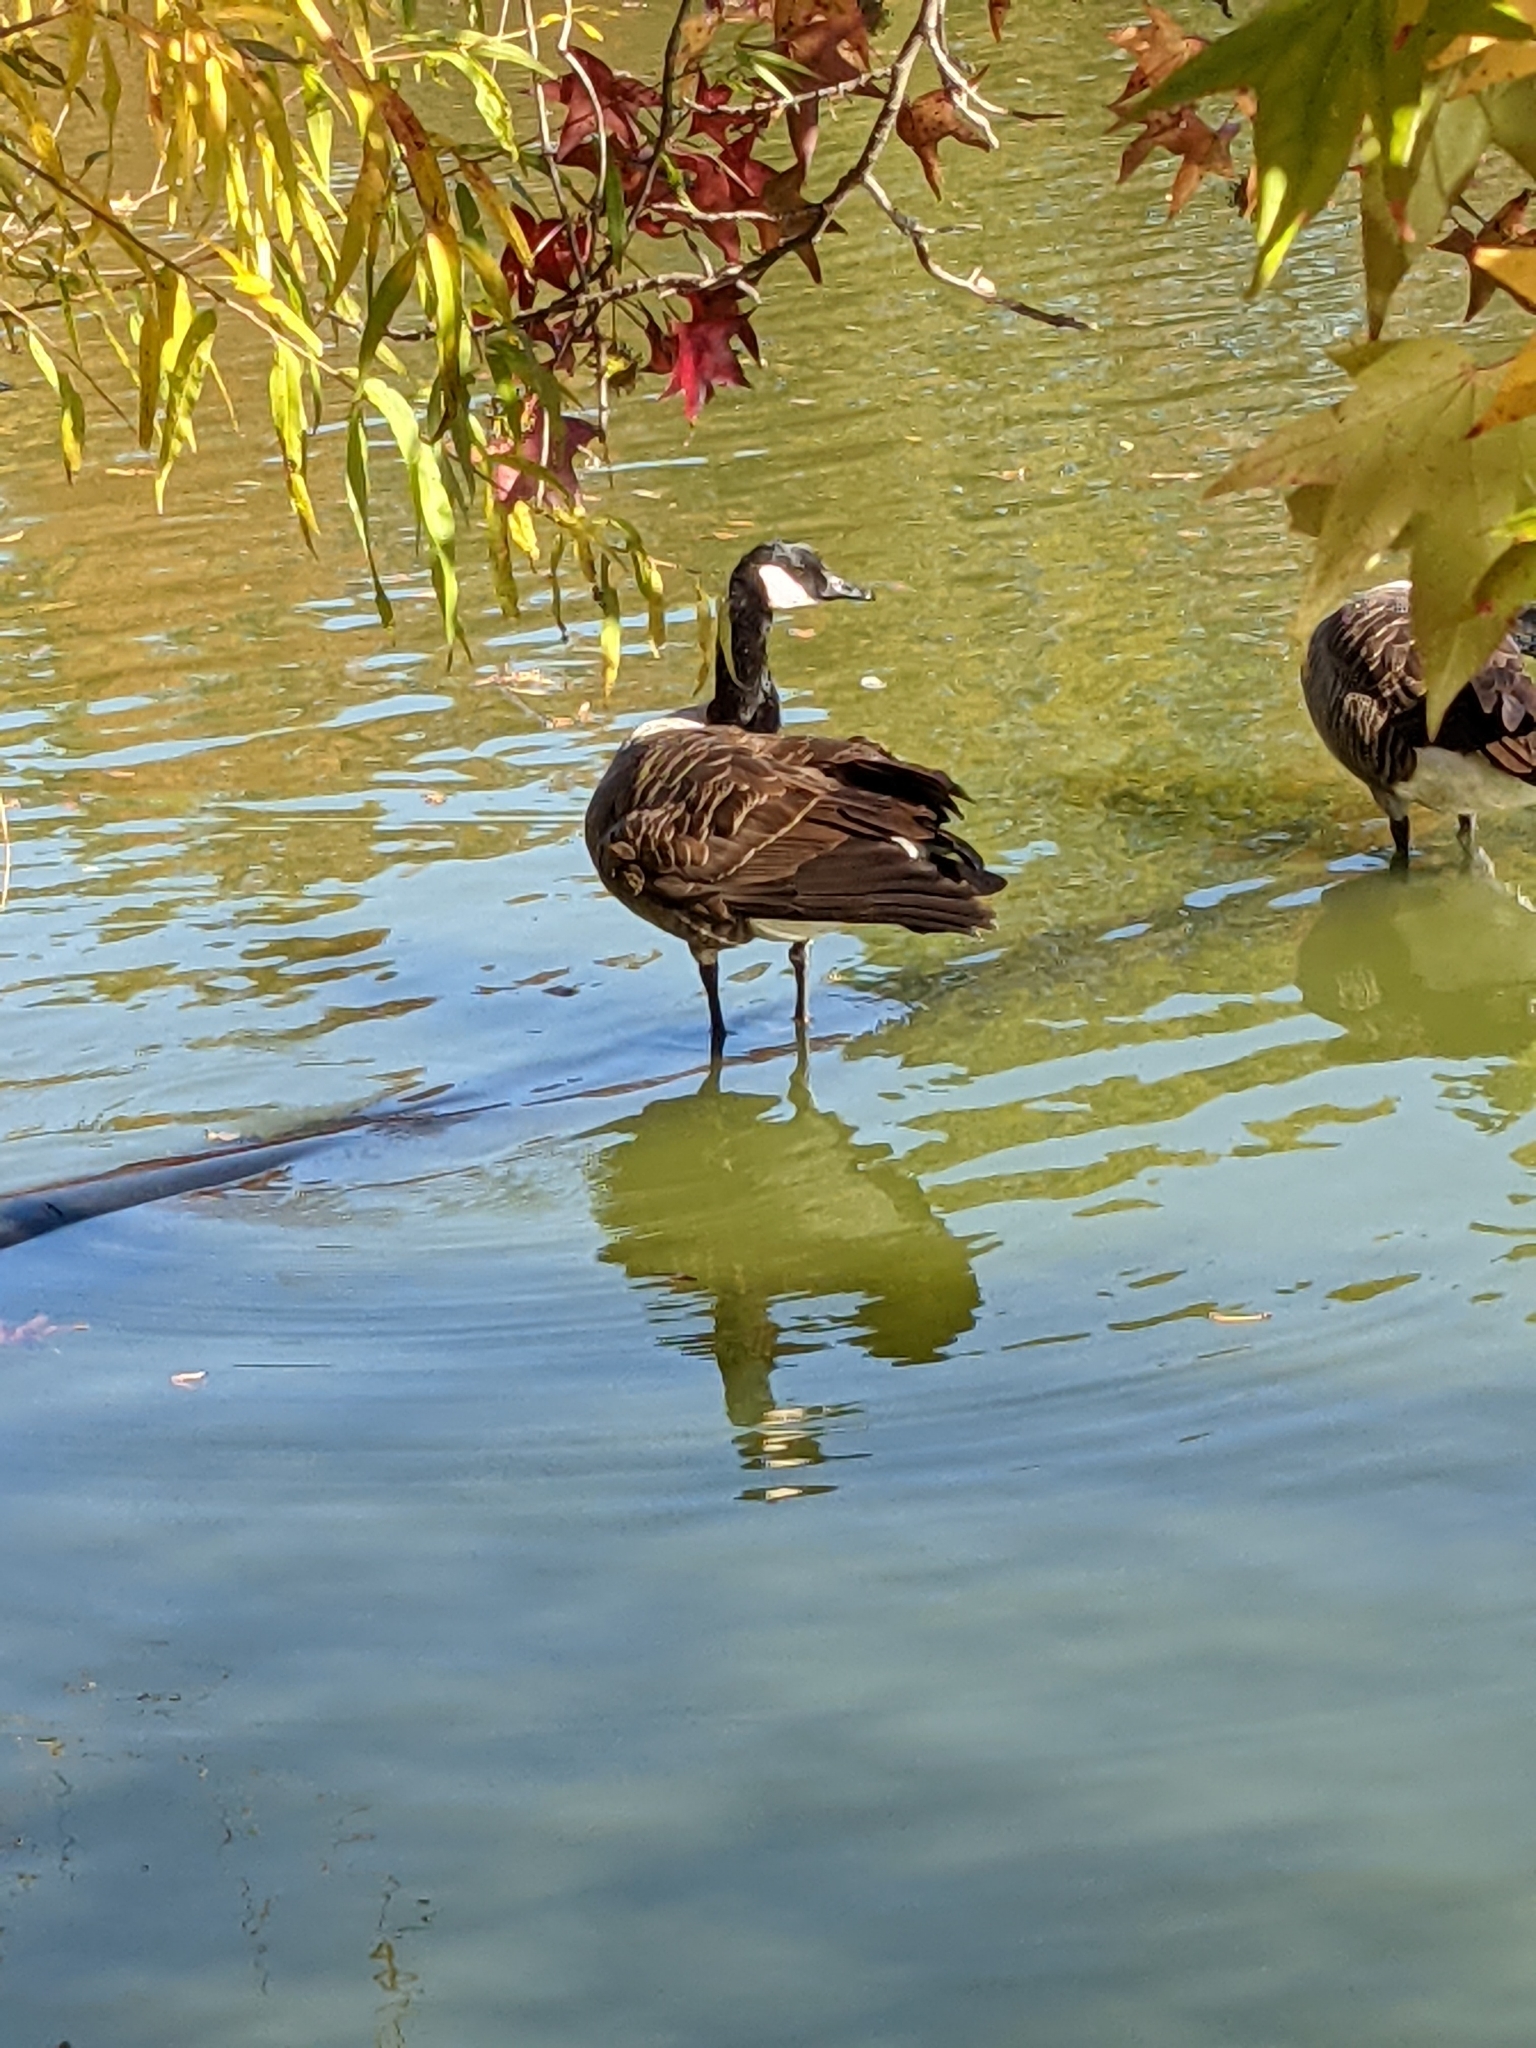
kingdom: Animalia
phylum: Chordata
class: Aves
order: Anseriformes
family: Anatidae
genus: Branta
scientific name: Branta canadensis
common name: Canada goose
